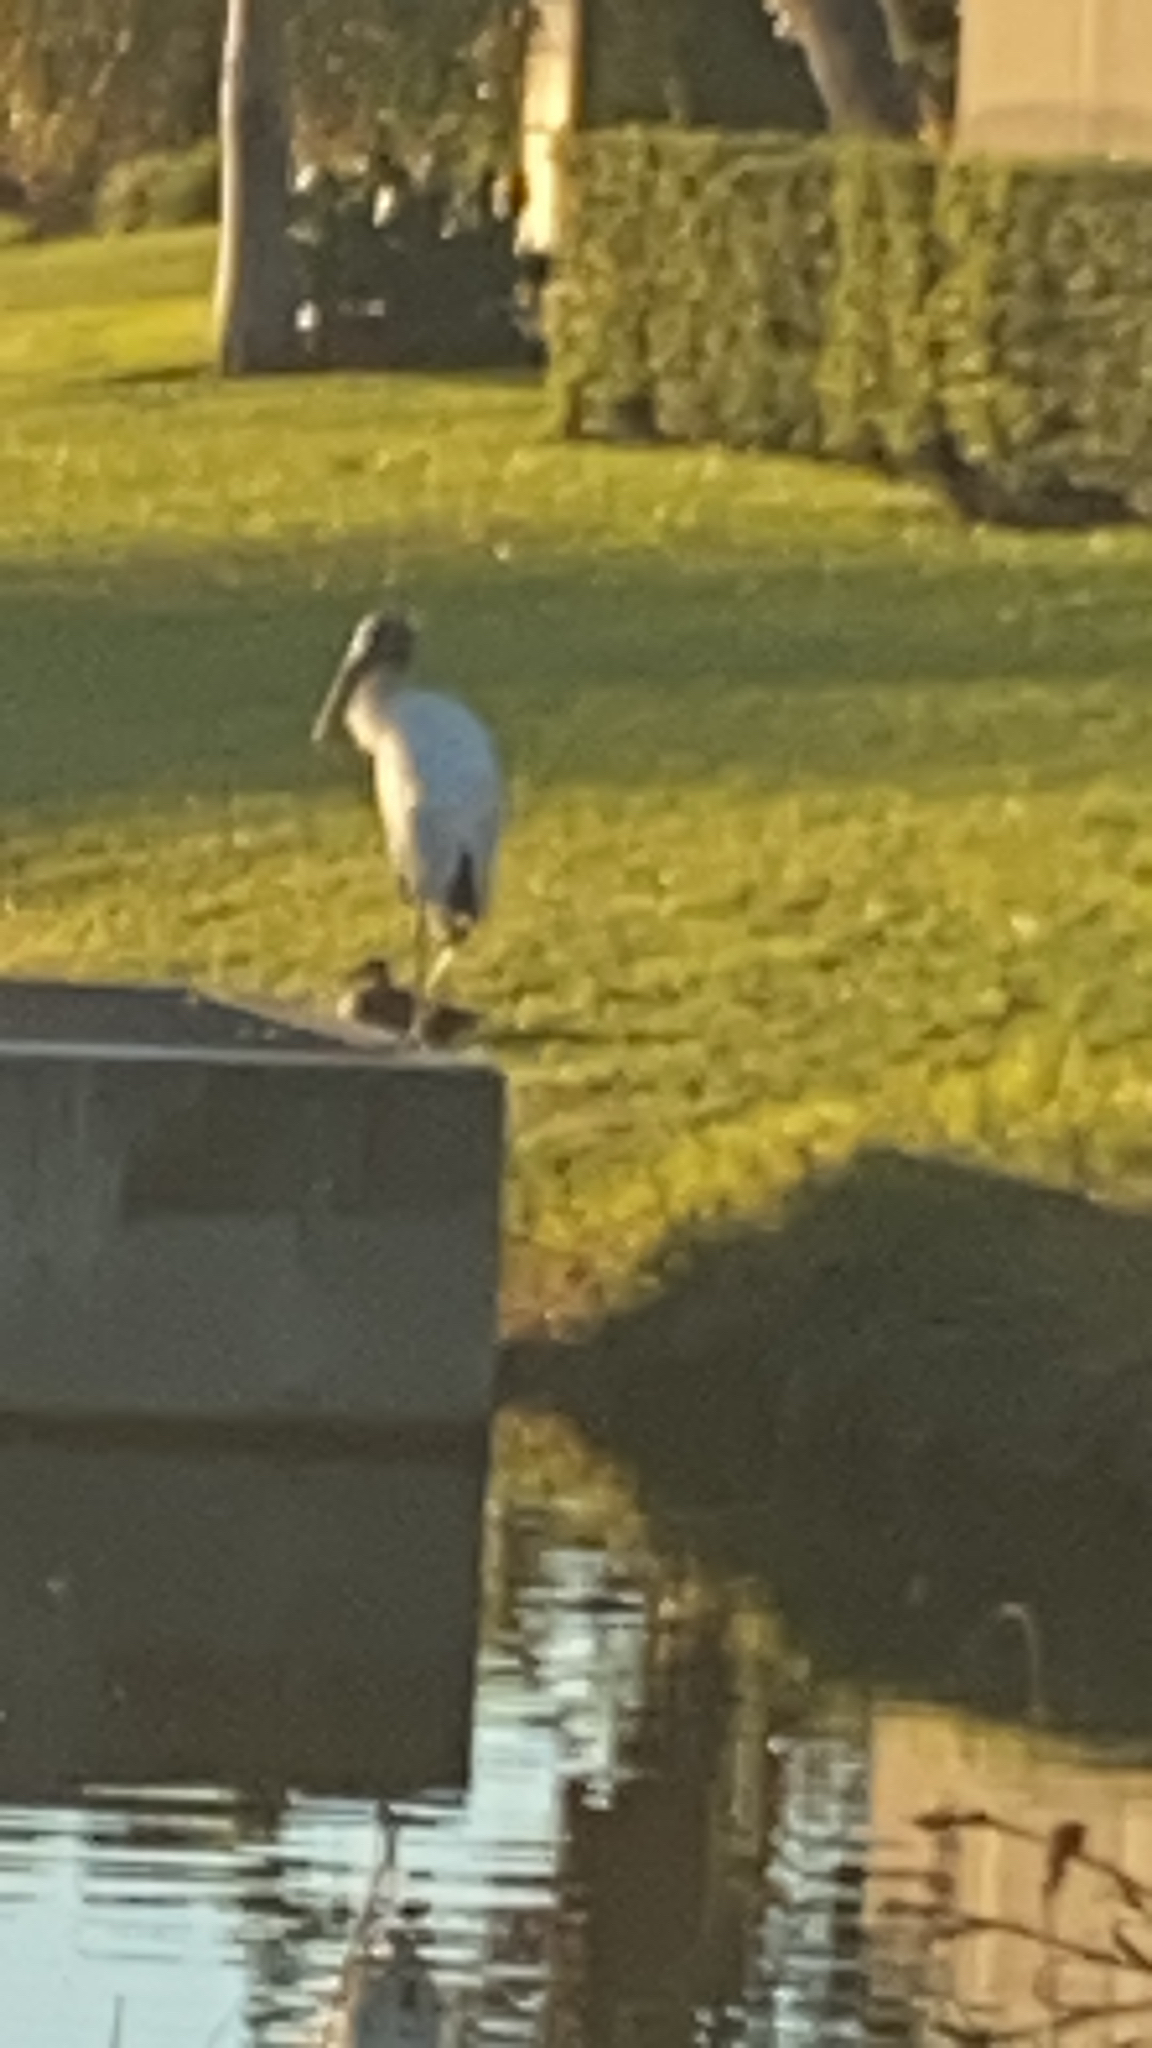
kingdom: Animalia
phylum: Chordata
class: Aves
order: Ciconiiformes
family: Ciconiidae
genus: Mycteria
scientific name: Mycteria americana
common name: Wood stork
